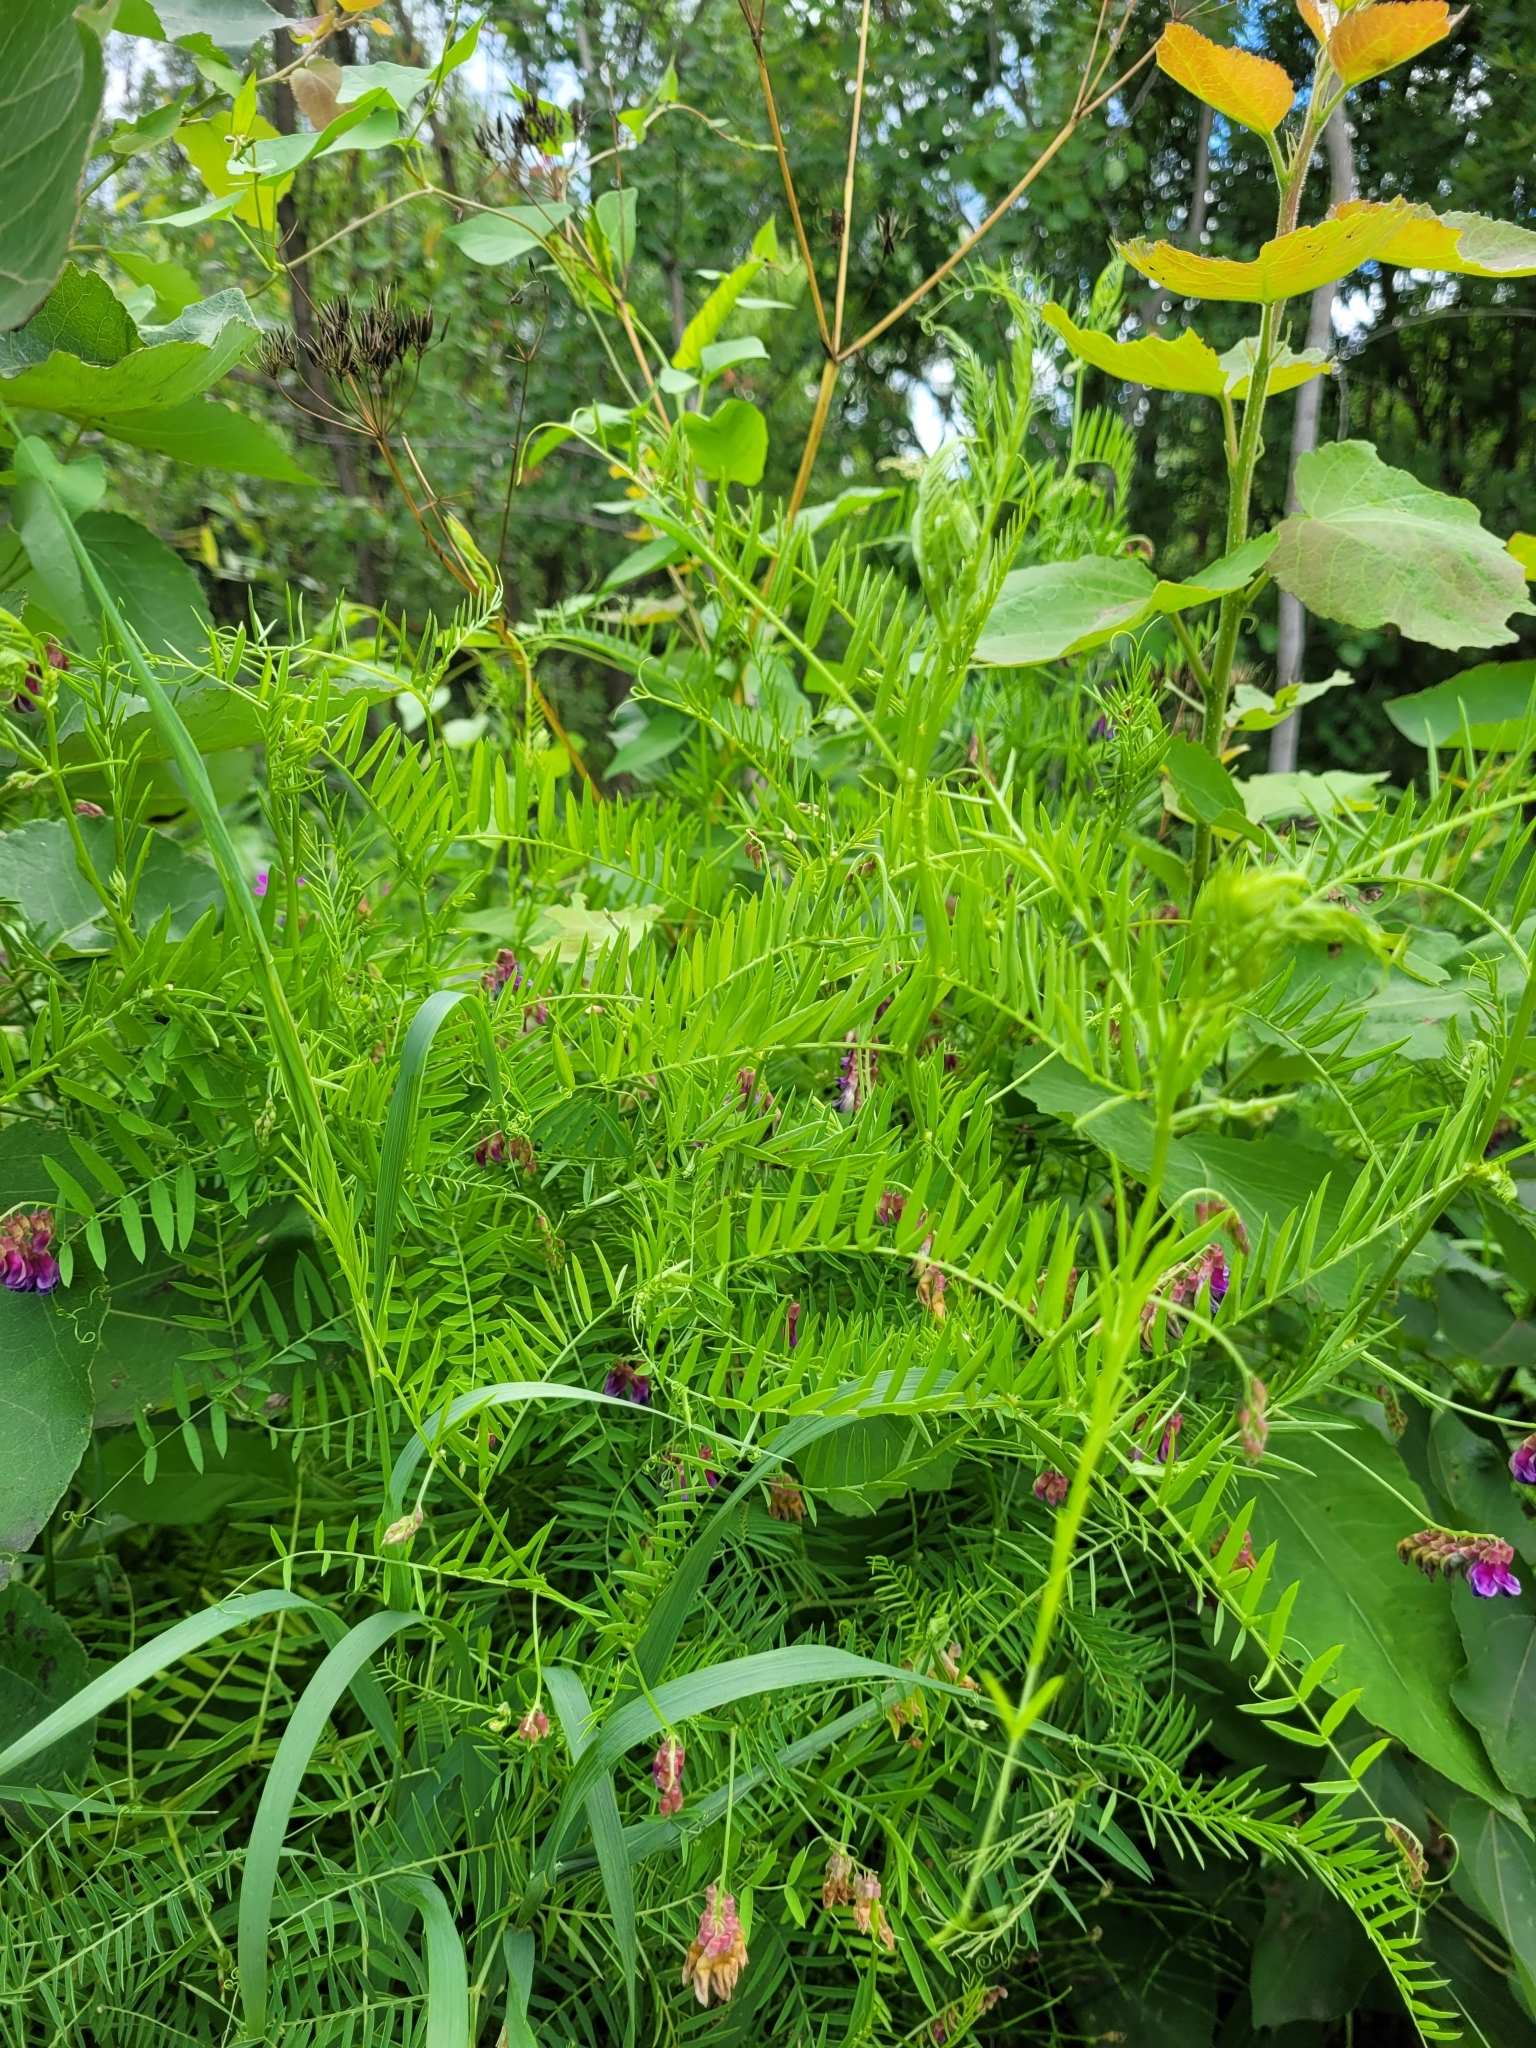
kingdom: Plantae
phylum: Tracheophyta
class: Magnoliopsida
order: Fabales
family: Fabaceae
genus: Vicia
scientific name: Vicia megalotropis
